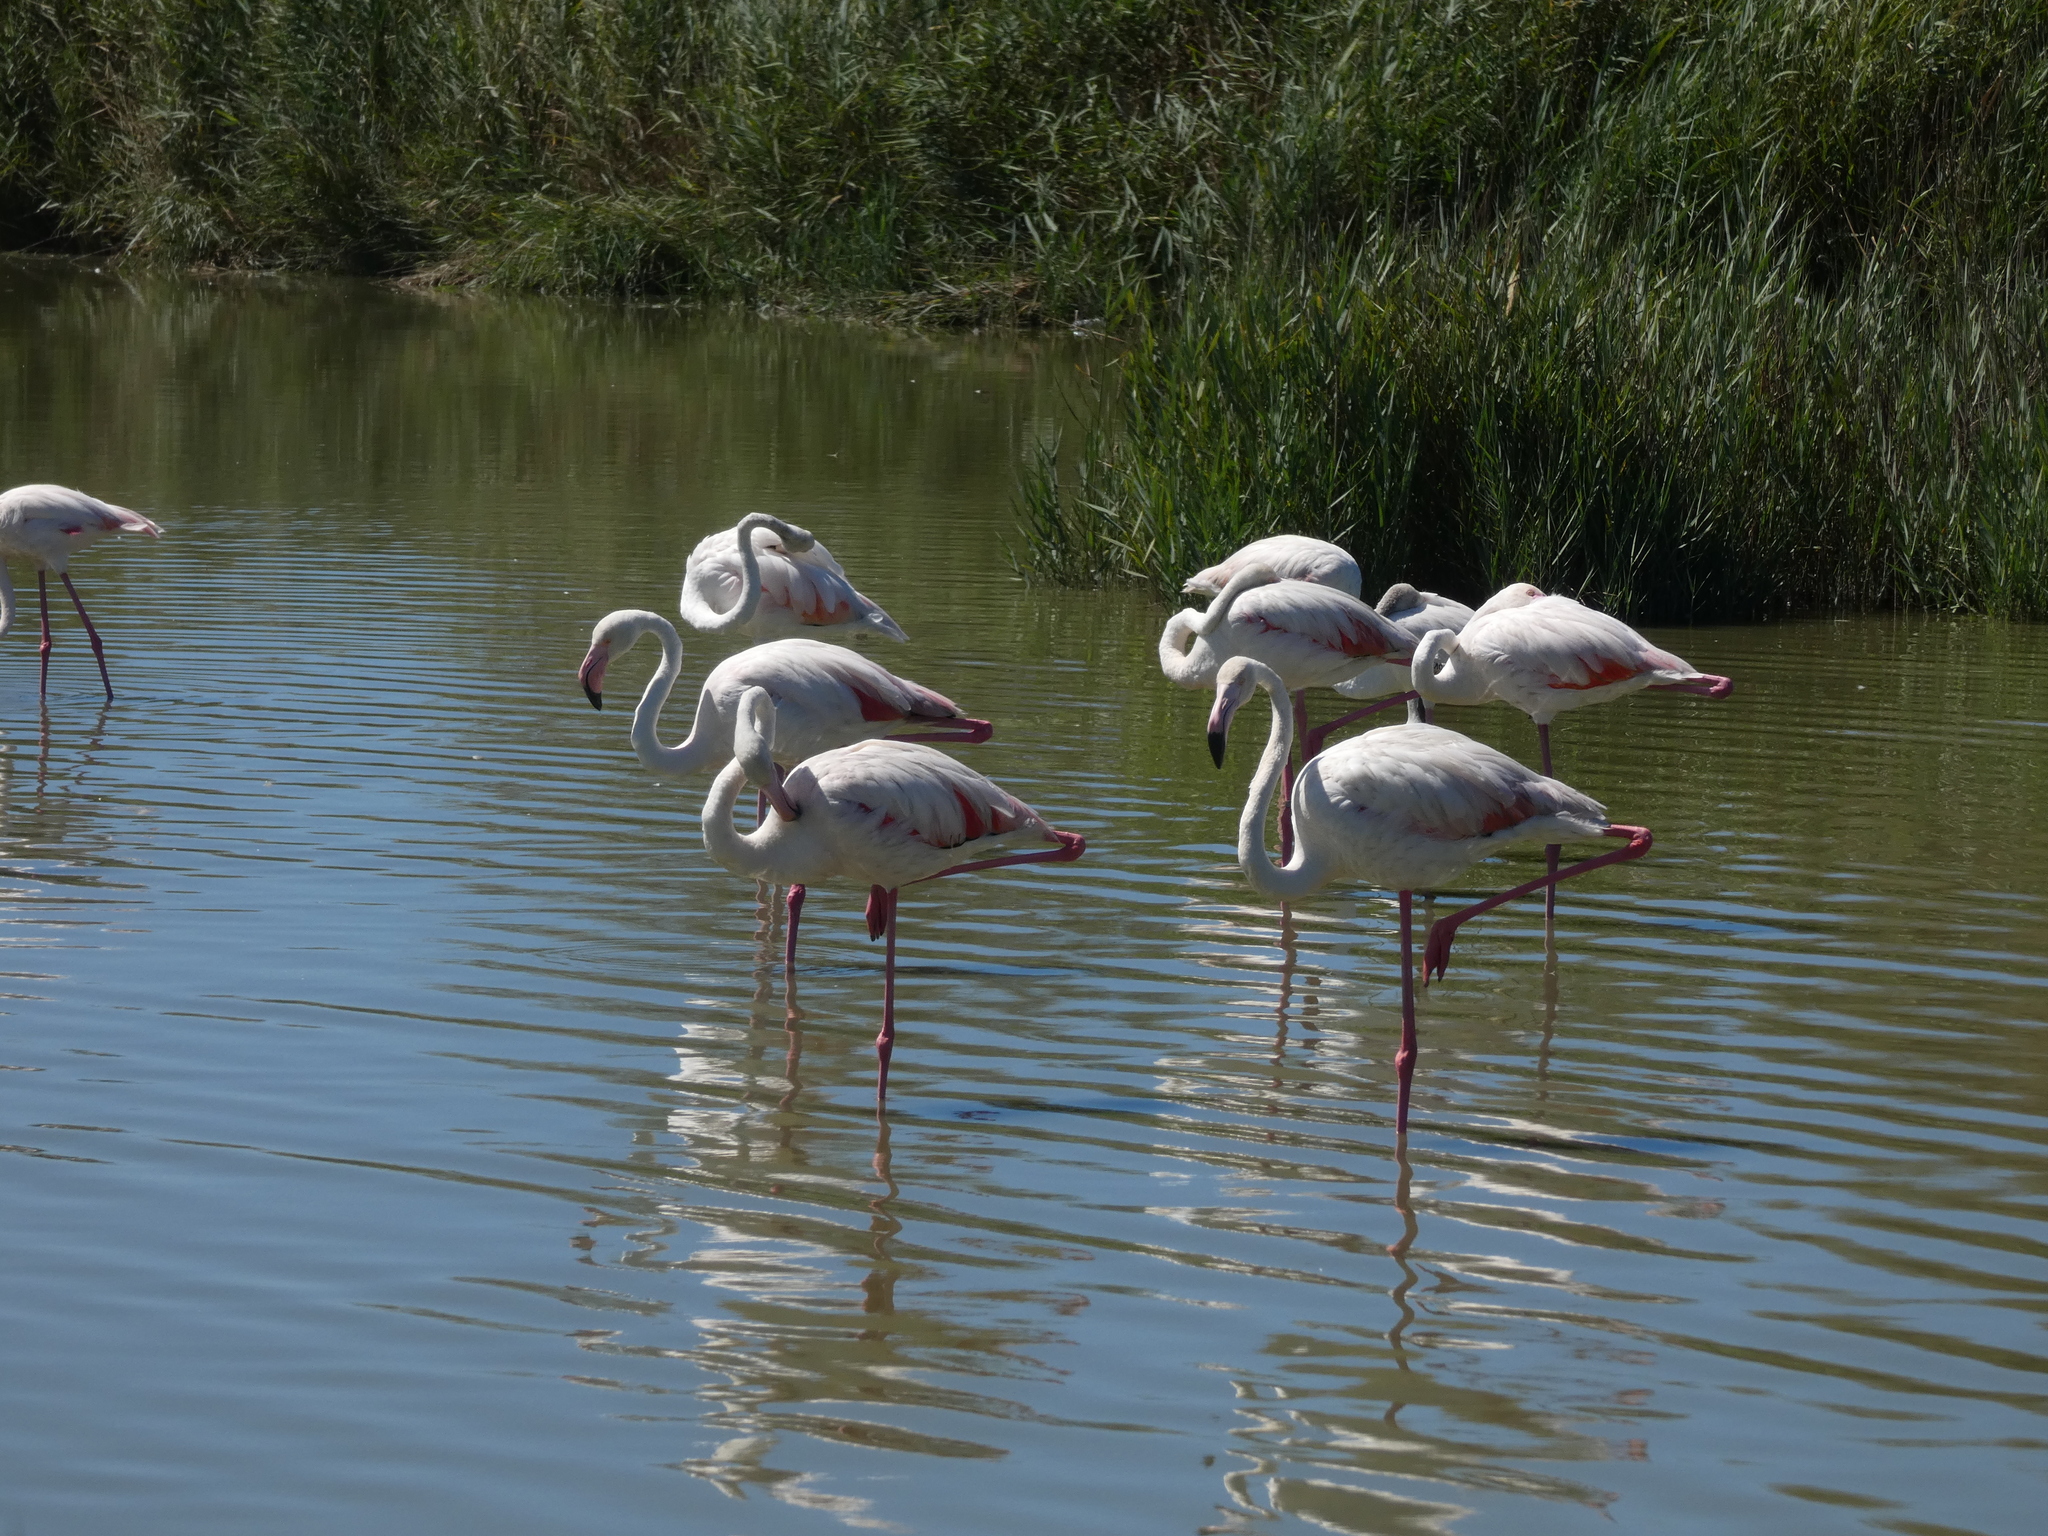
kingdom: Animalia
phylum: Chordata
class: Aves
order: Phoenicopteriformes
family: Phoenicopteridae
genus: Phoenicopterus
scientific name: Phoenicopterus roseus
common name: Greater flamingo
